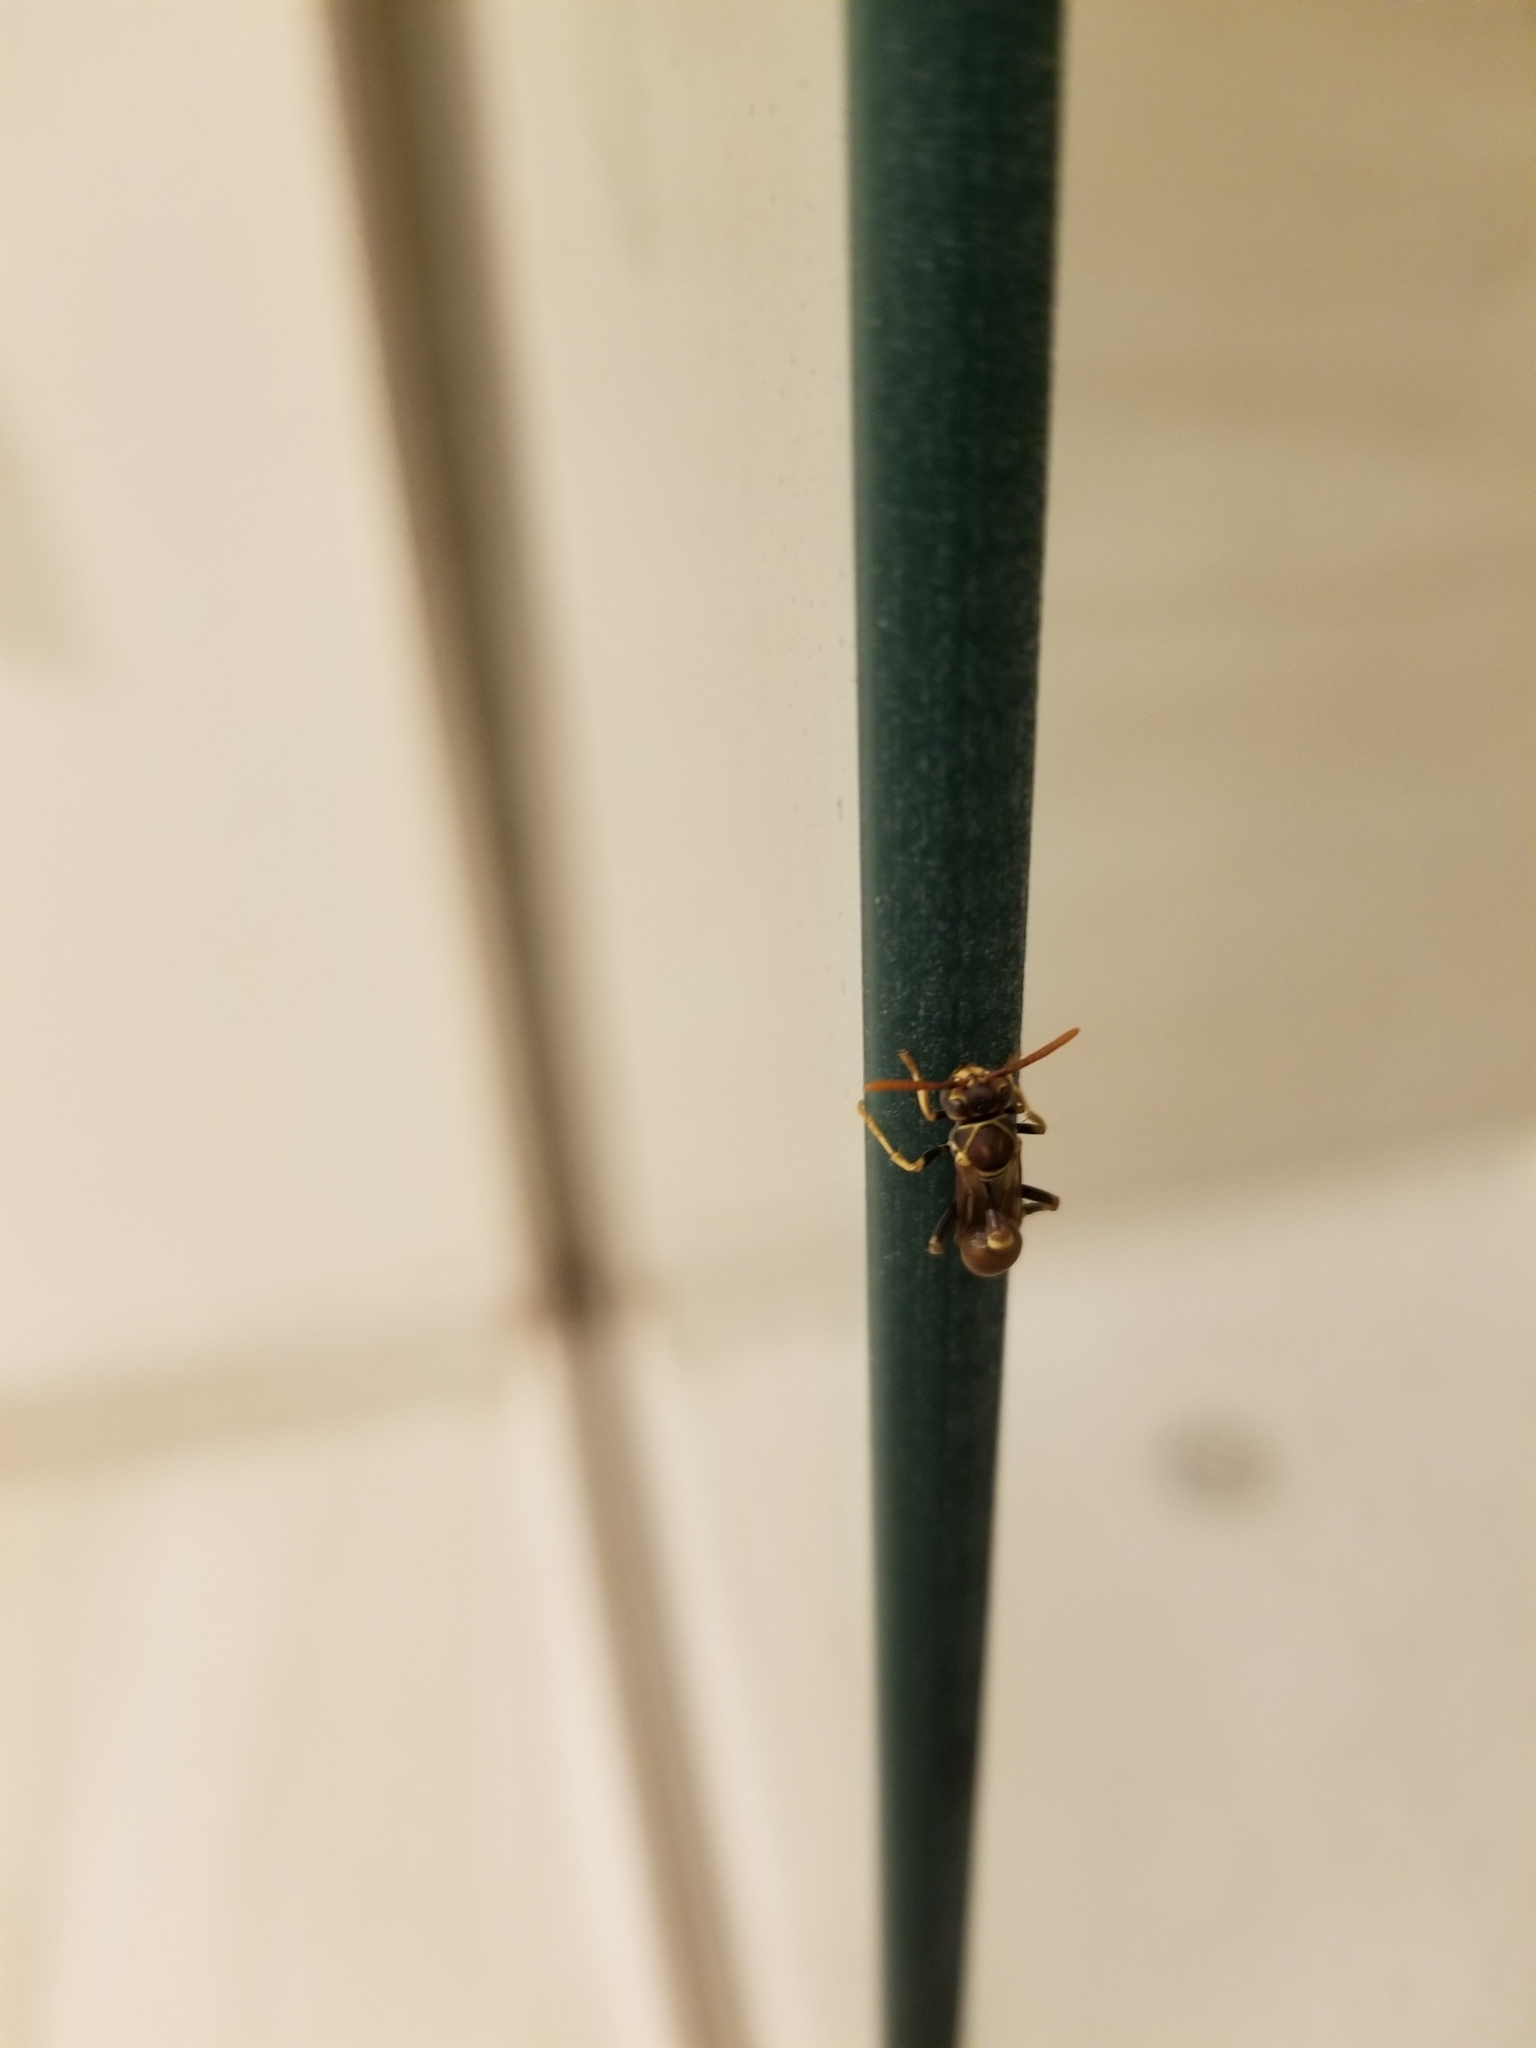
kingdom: Animalia
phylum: Arthropoda
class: Insecta
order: Hymenoptera
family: Vespidae
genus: Mischocyttarus
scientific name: Mischocyttarus mexicanus
